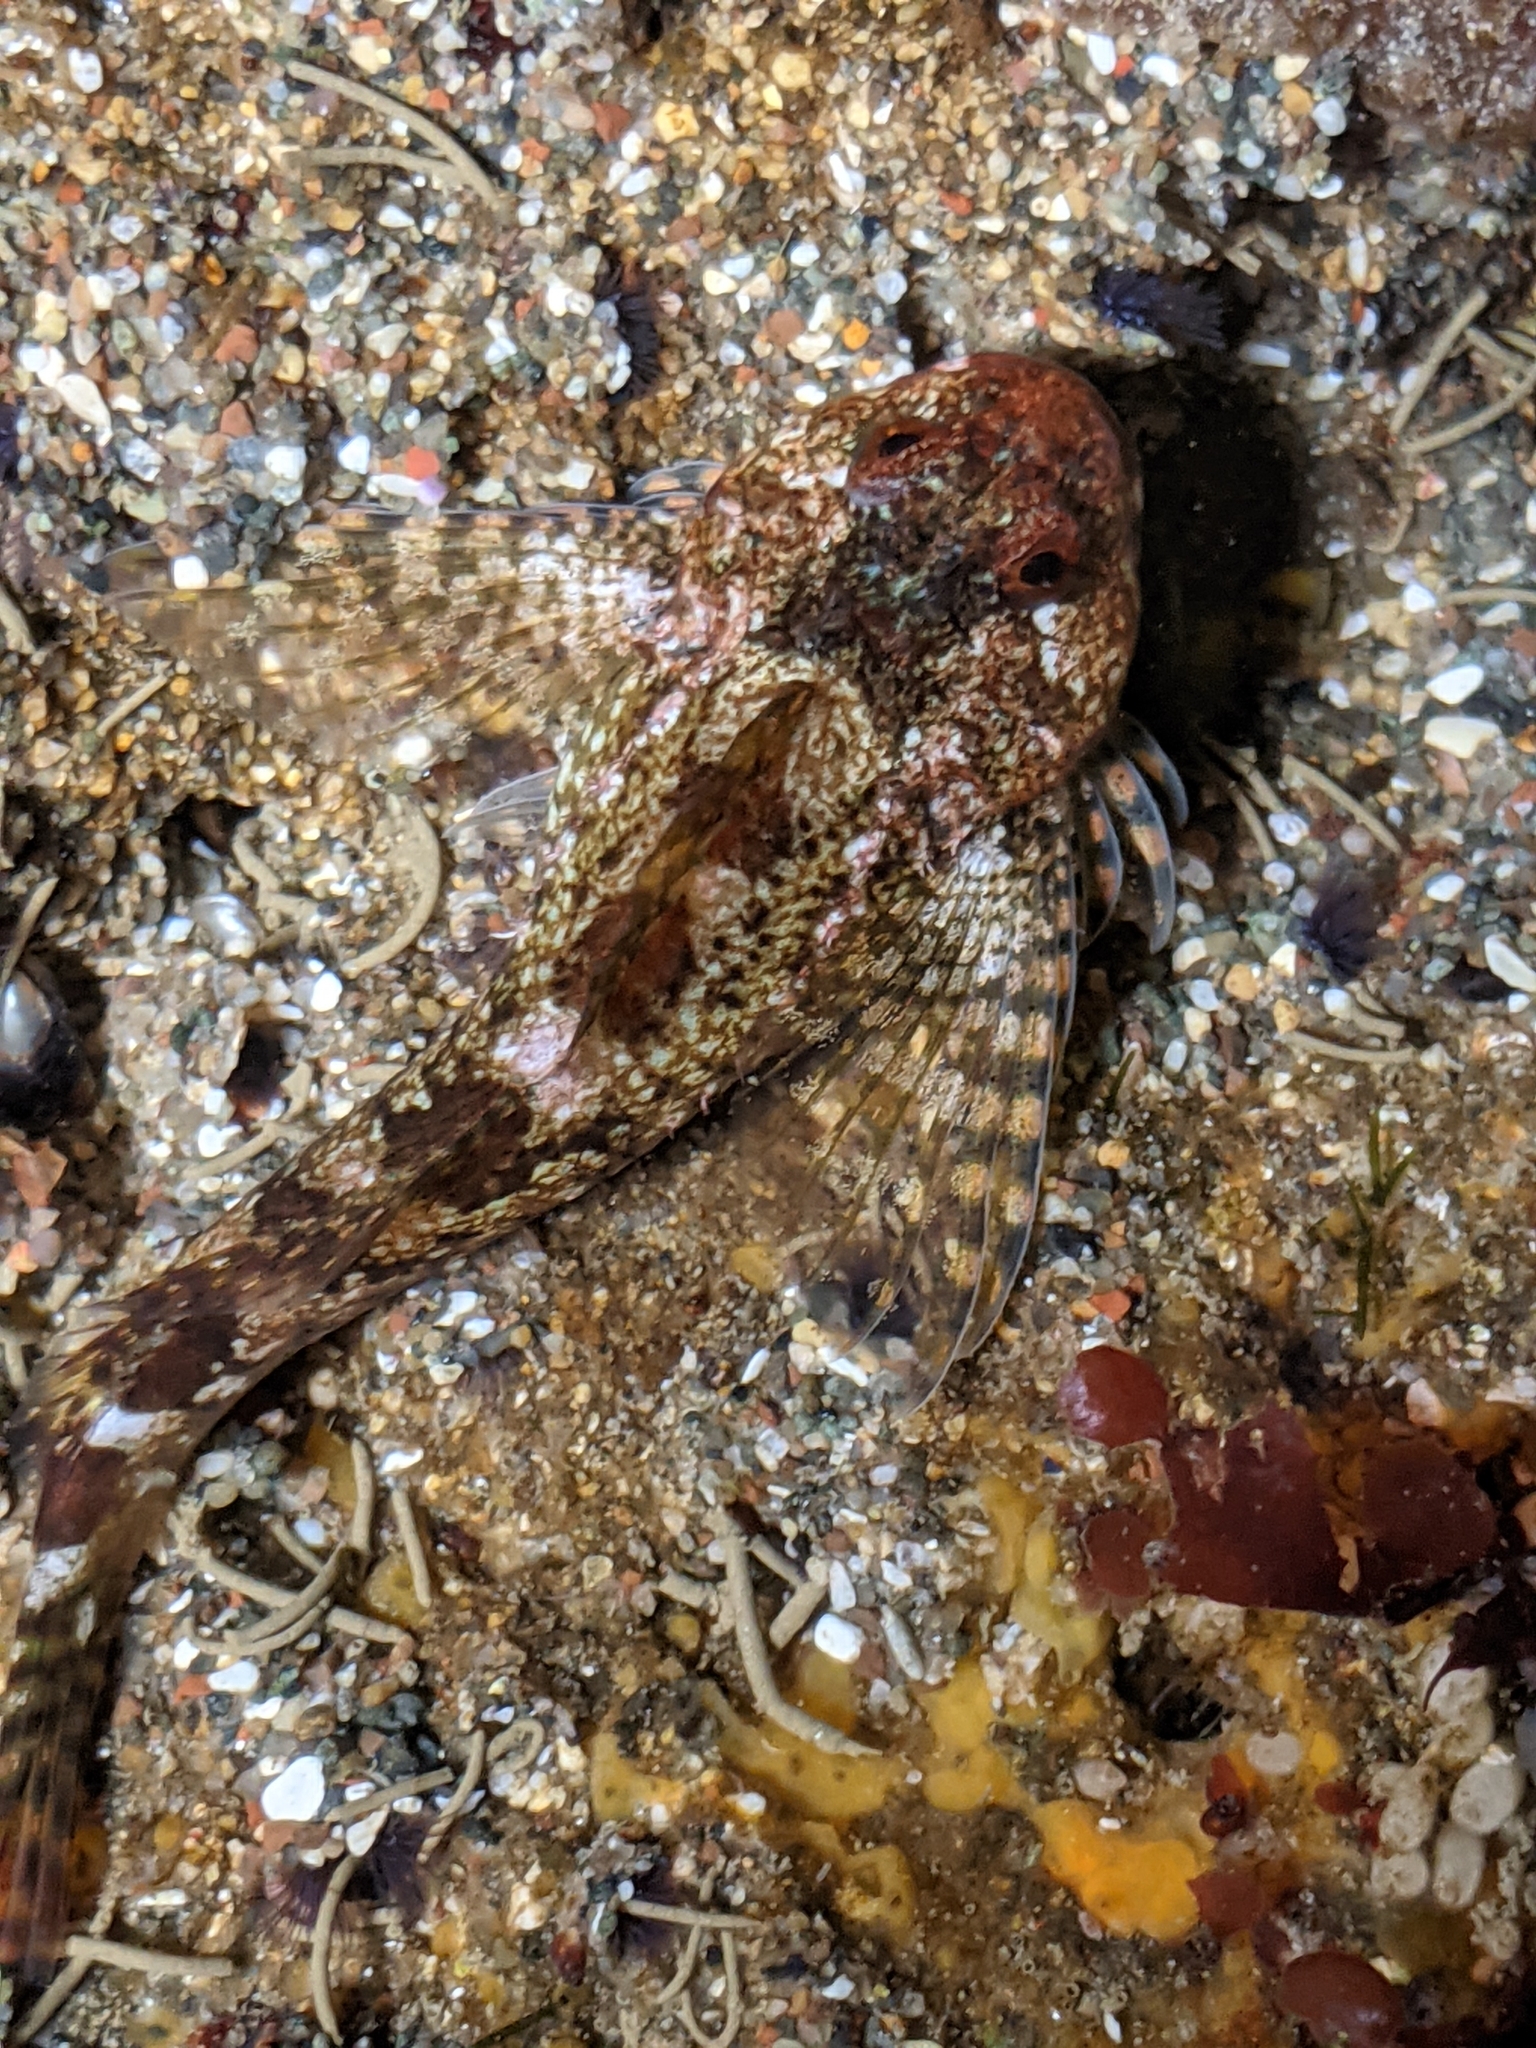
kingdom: Animalia
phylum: Chordata
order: Scorpaeniformes
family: Cottidae
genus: Clinocottus
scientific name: Clinocottus recalvus
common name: Bald sculpin
